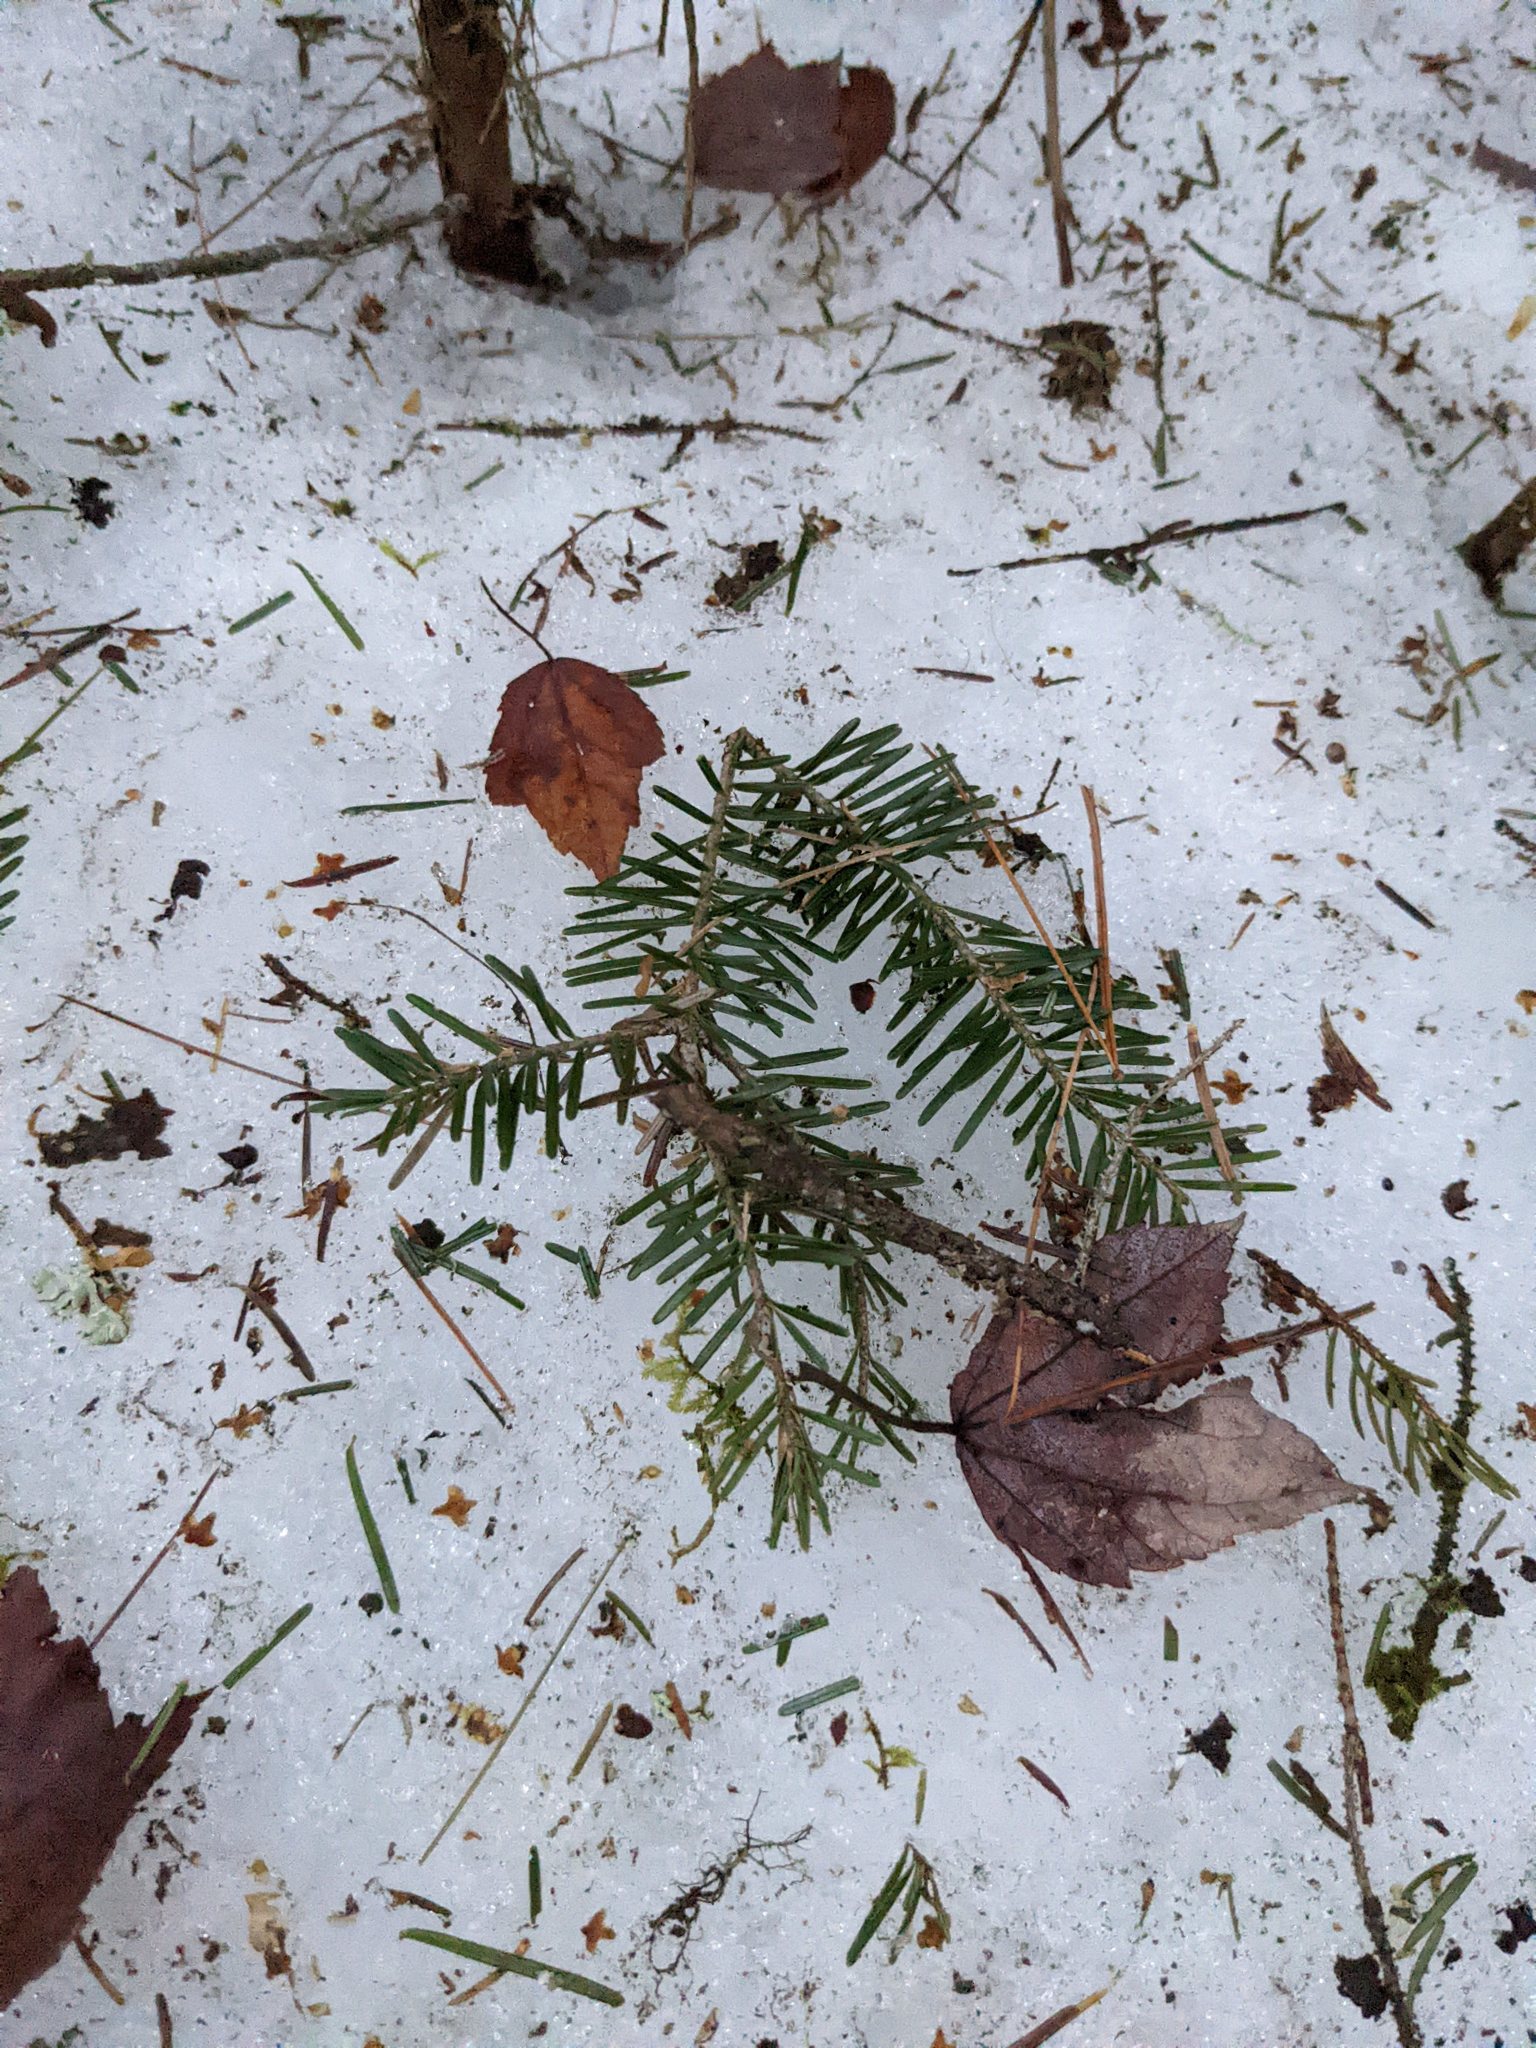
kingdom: Plantae
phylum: Tracheophyta
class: Pinopsida
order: Pinales
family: Pinaceae
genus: Abies
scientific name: Abies balsamea
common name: Balsam fir
